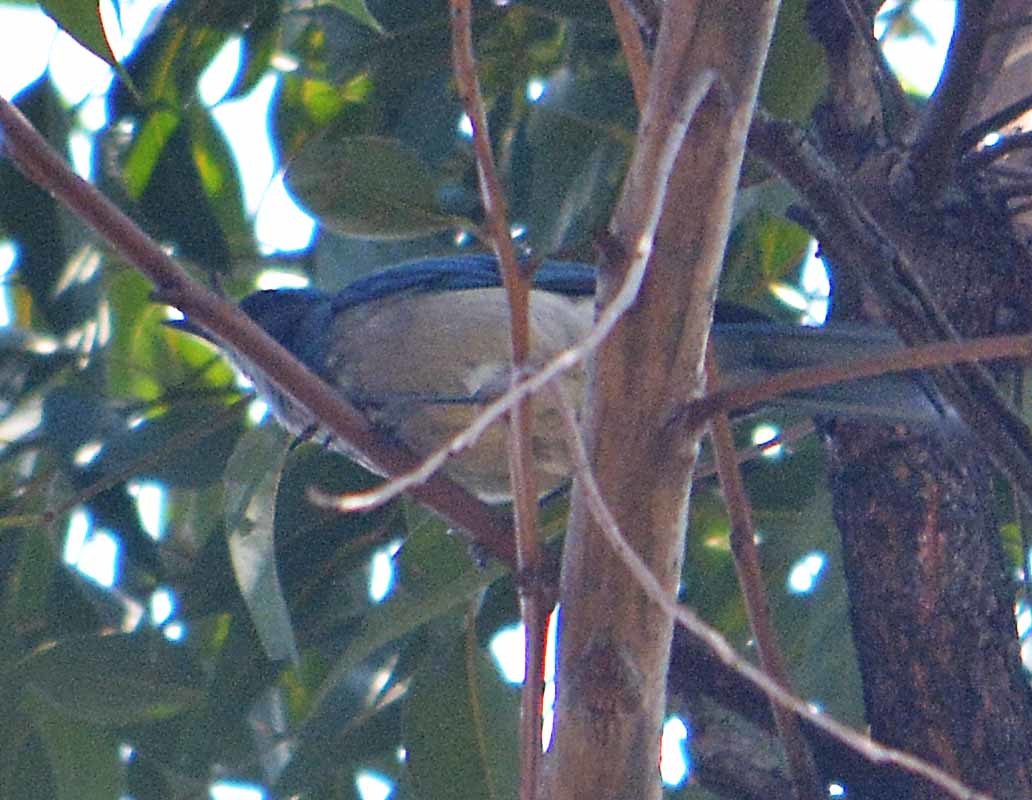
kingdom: Animalia
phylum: Chordata
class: Aves
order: Passeriformes
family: Corvidae
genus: Aphelocoma
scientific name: Aphelocoma woodhouseii
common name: Woodhouse's scrub-jay
